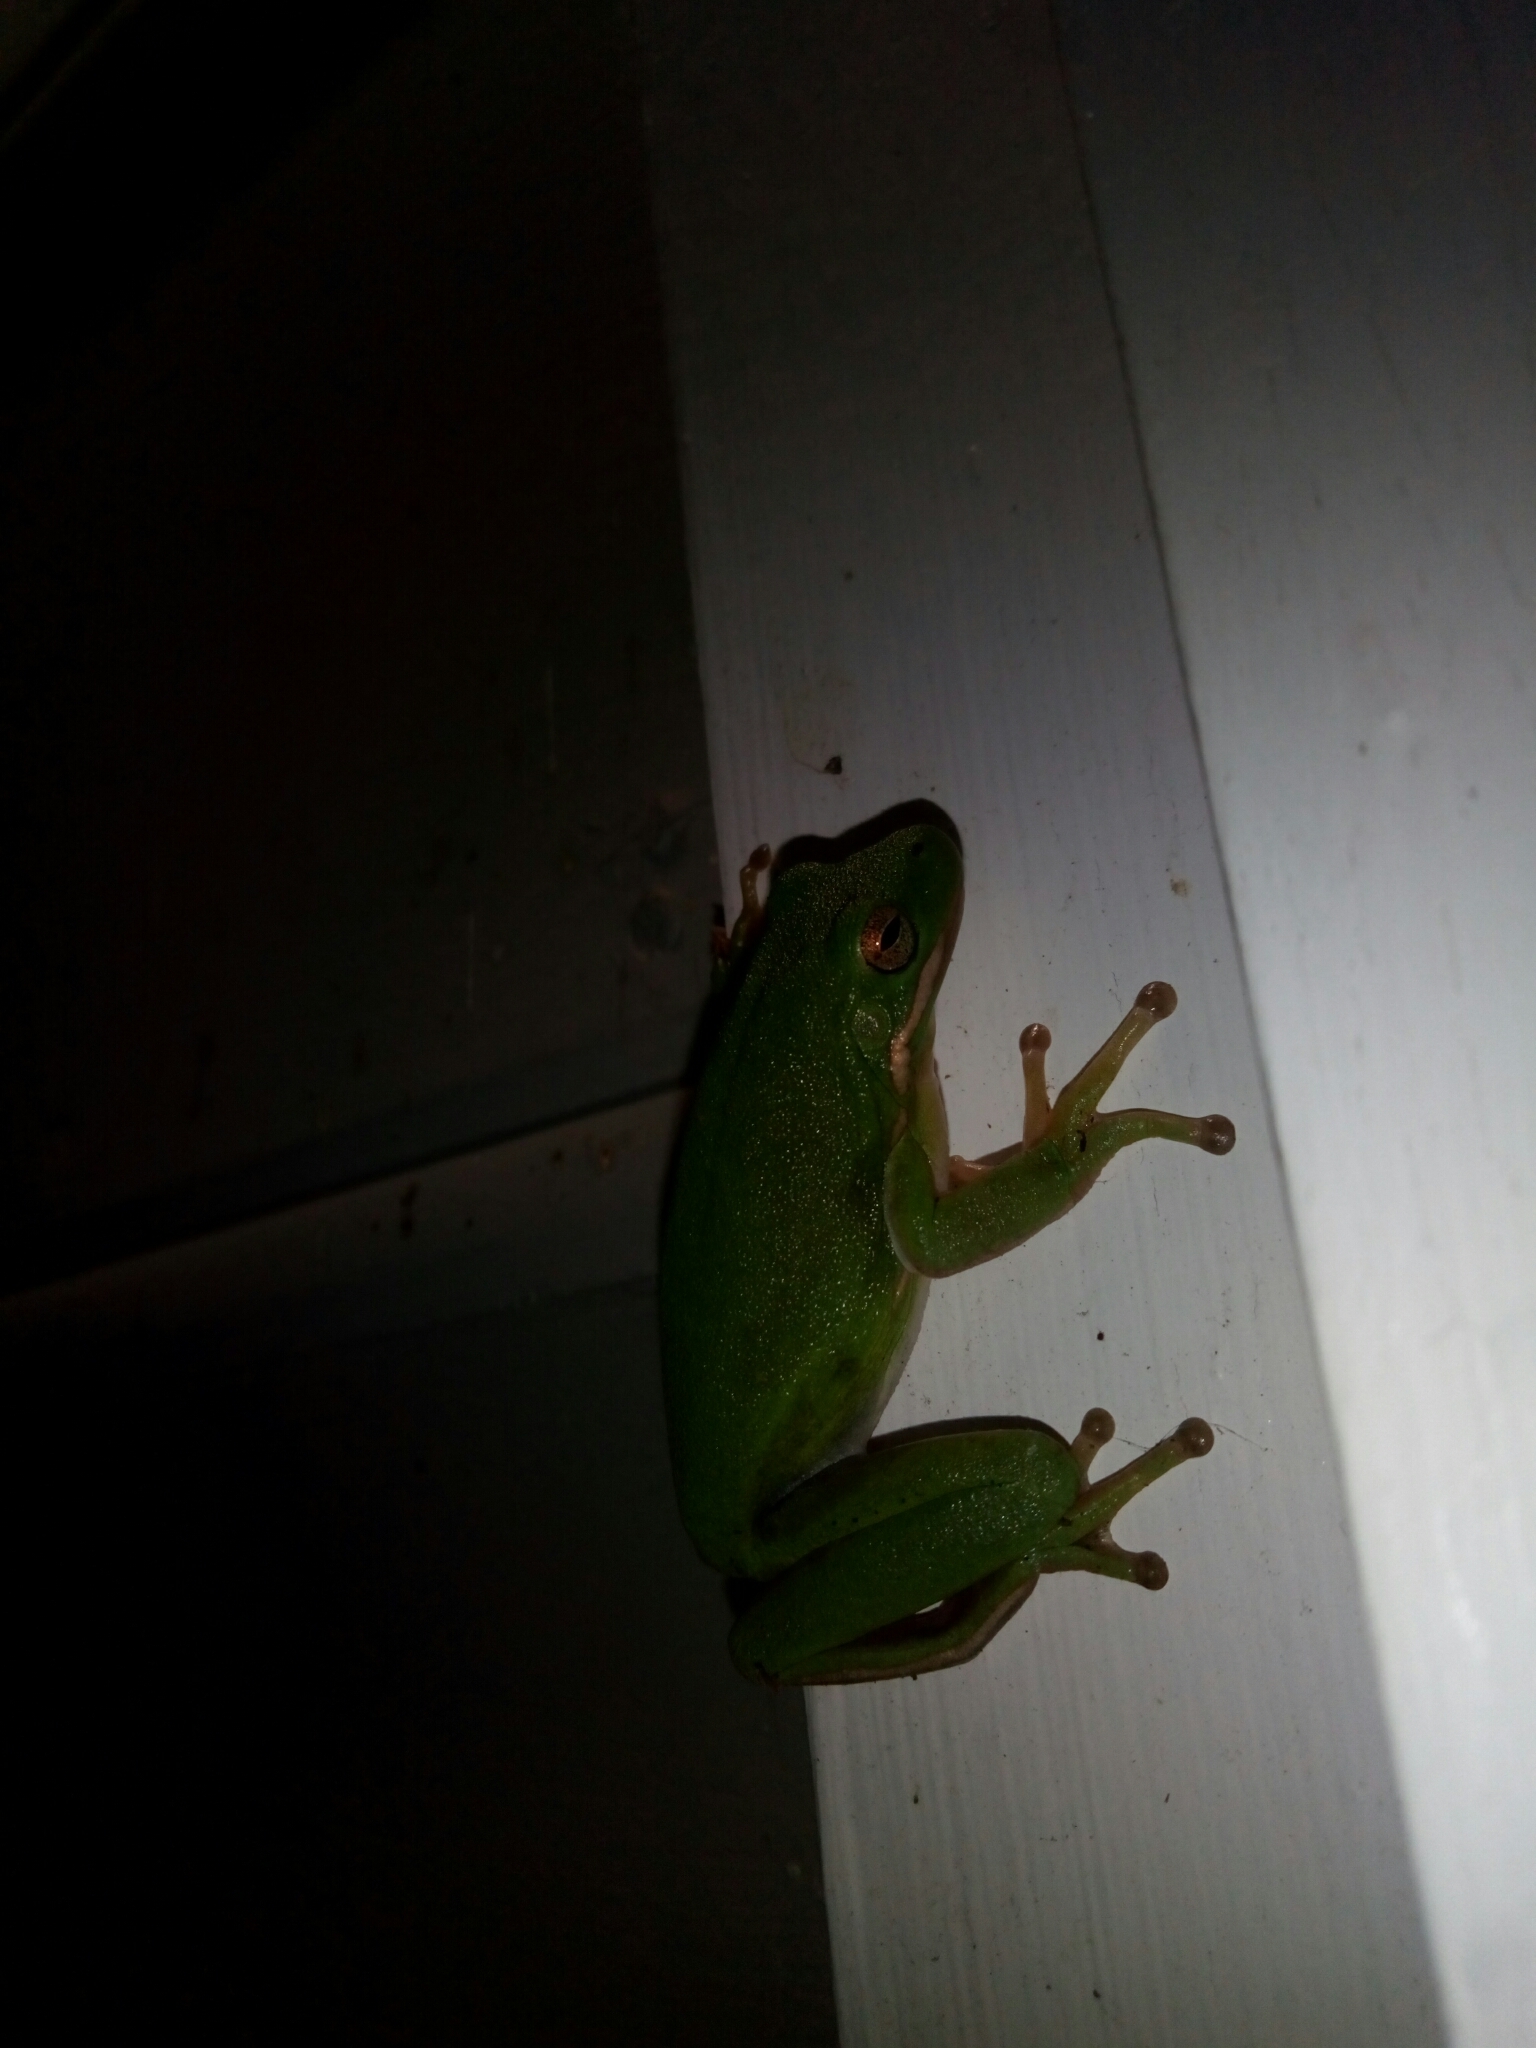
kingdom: Animalia
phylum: Chordata
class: Amphibia
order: Anura
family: Hylidae
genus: Dryophytes
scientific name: Dryophytes cinereus
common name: Green treefrog
